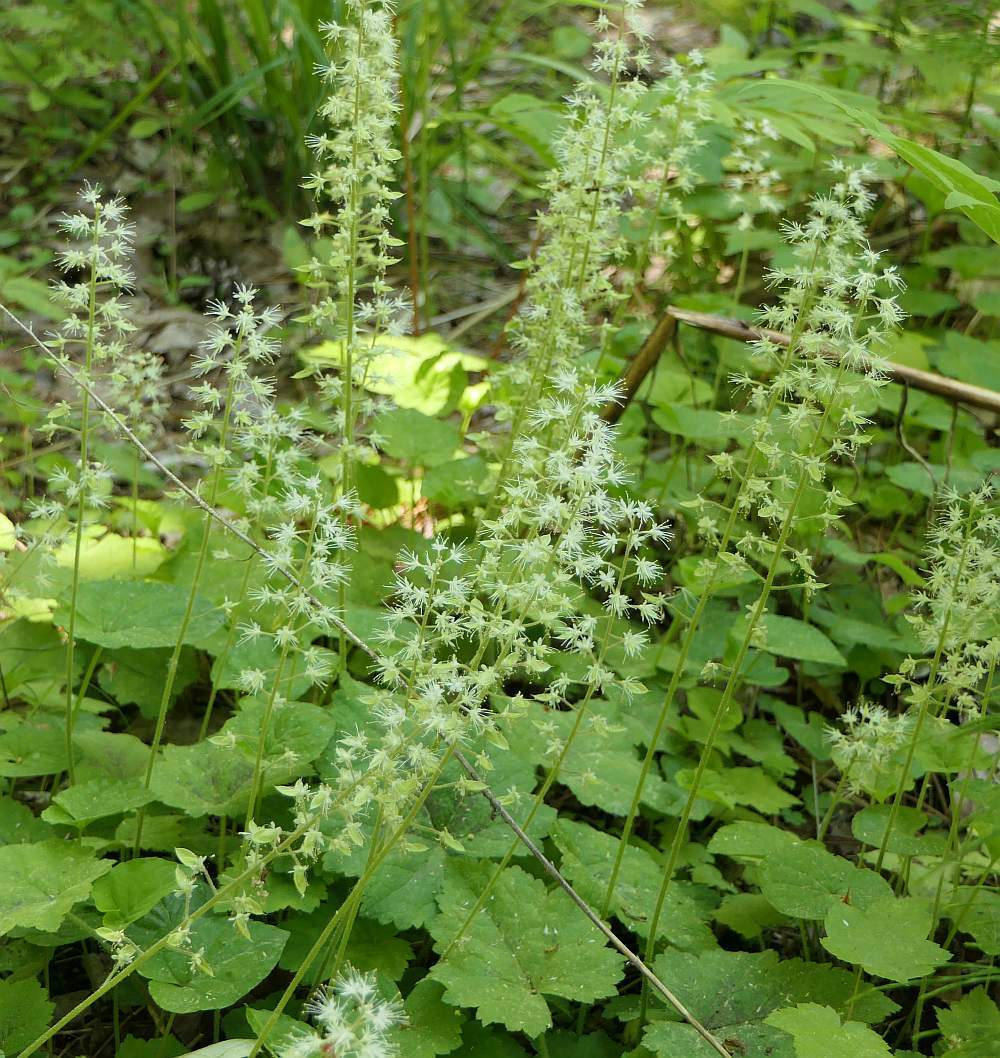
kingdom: Plantae
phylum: Tracheophyta
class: Magnoliopsida
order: Saxifragales
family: Saxifragaceae
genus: Tiarella
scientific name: Tiarella stolonifera
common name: Stoloniferous foamflower
